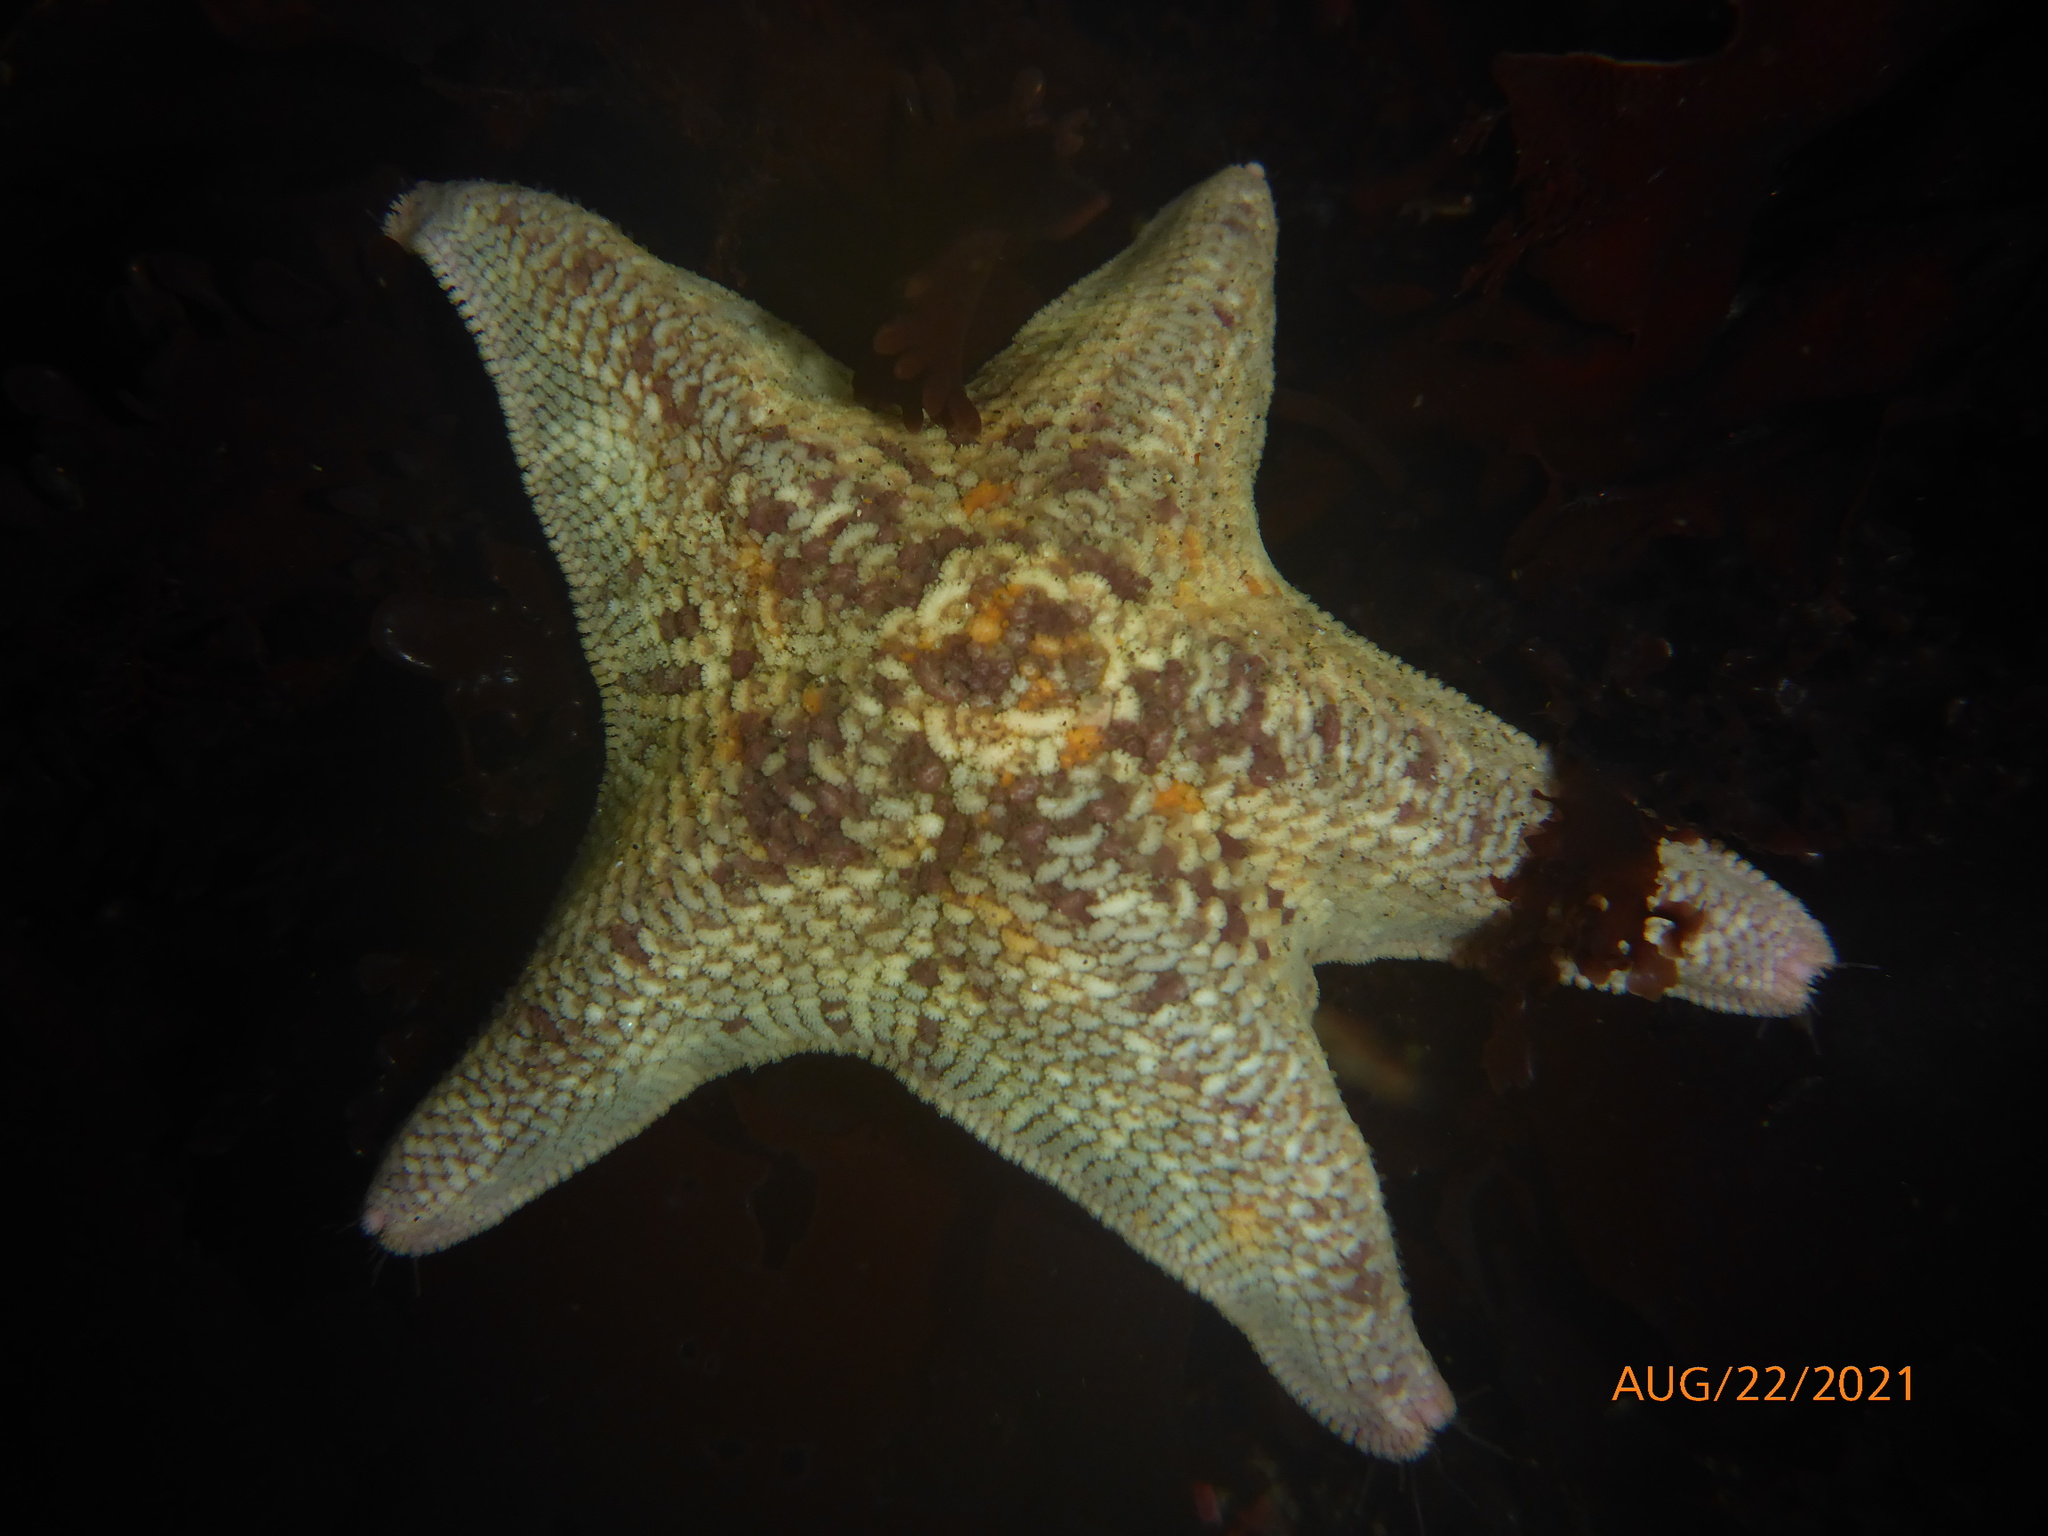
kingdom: Animalia
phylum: Echinodermata
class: Asteroidea
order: Valvatida
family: Asterinidae
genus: Patiria
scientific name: Patiria miniata
